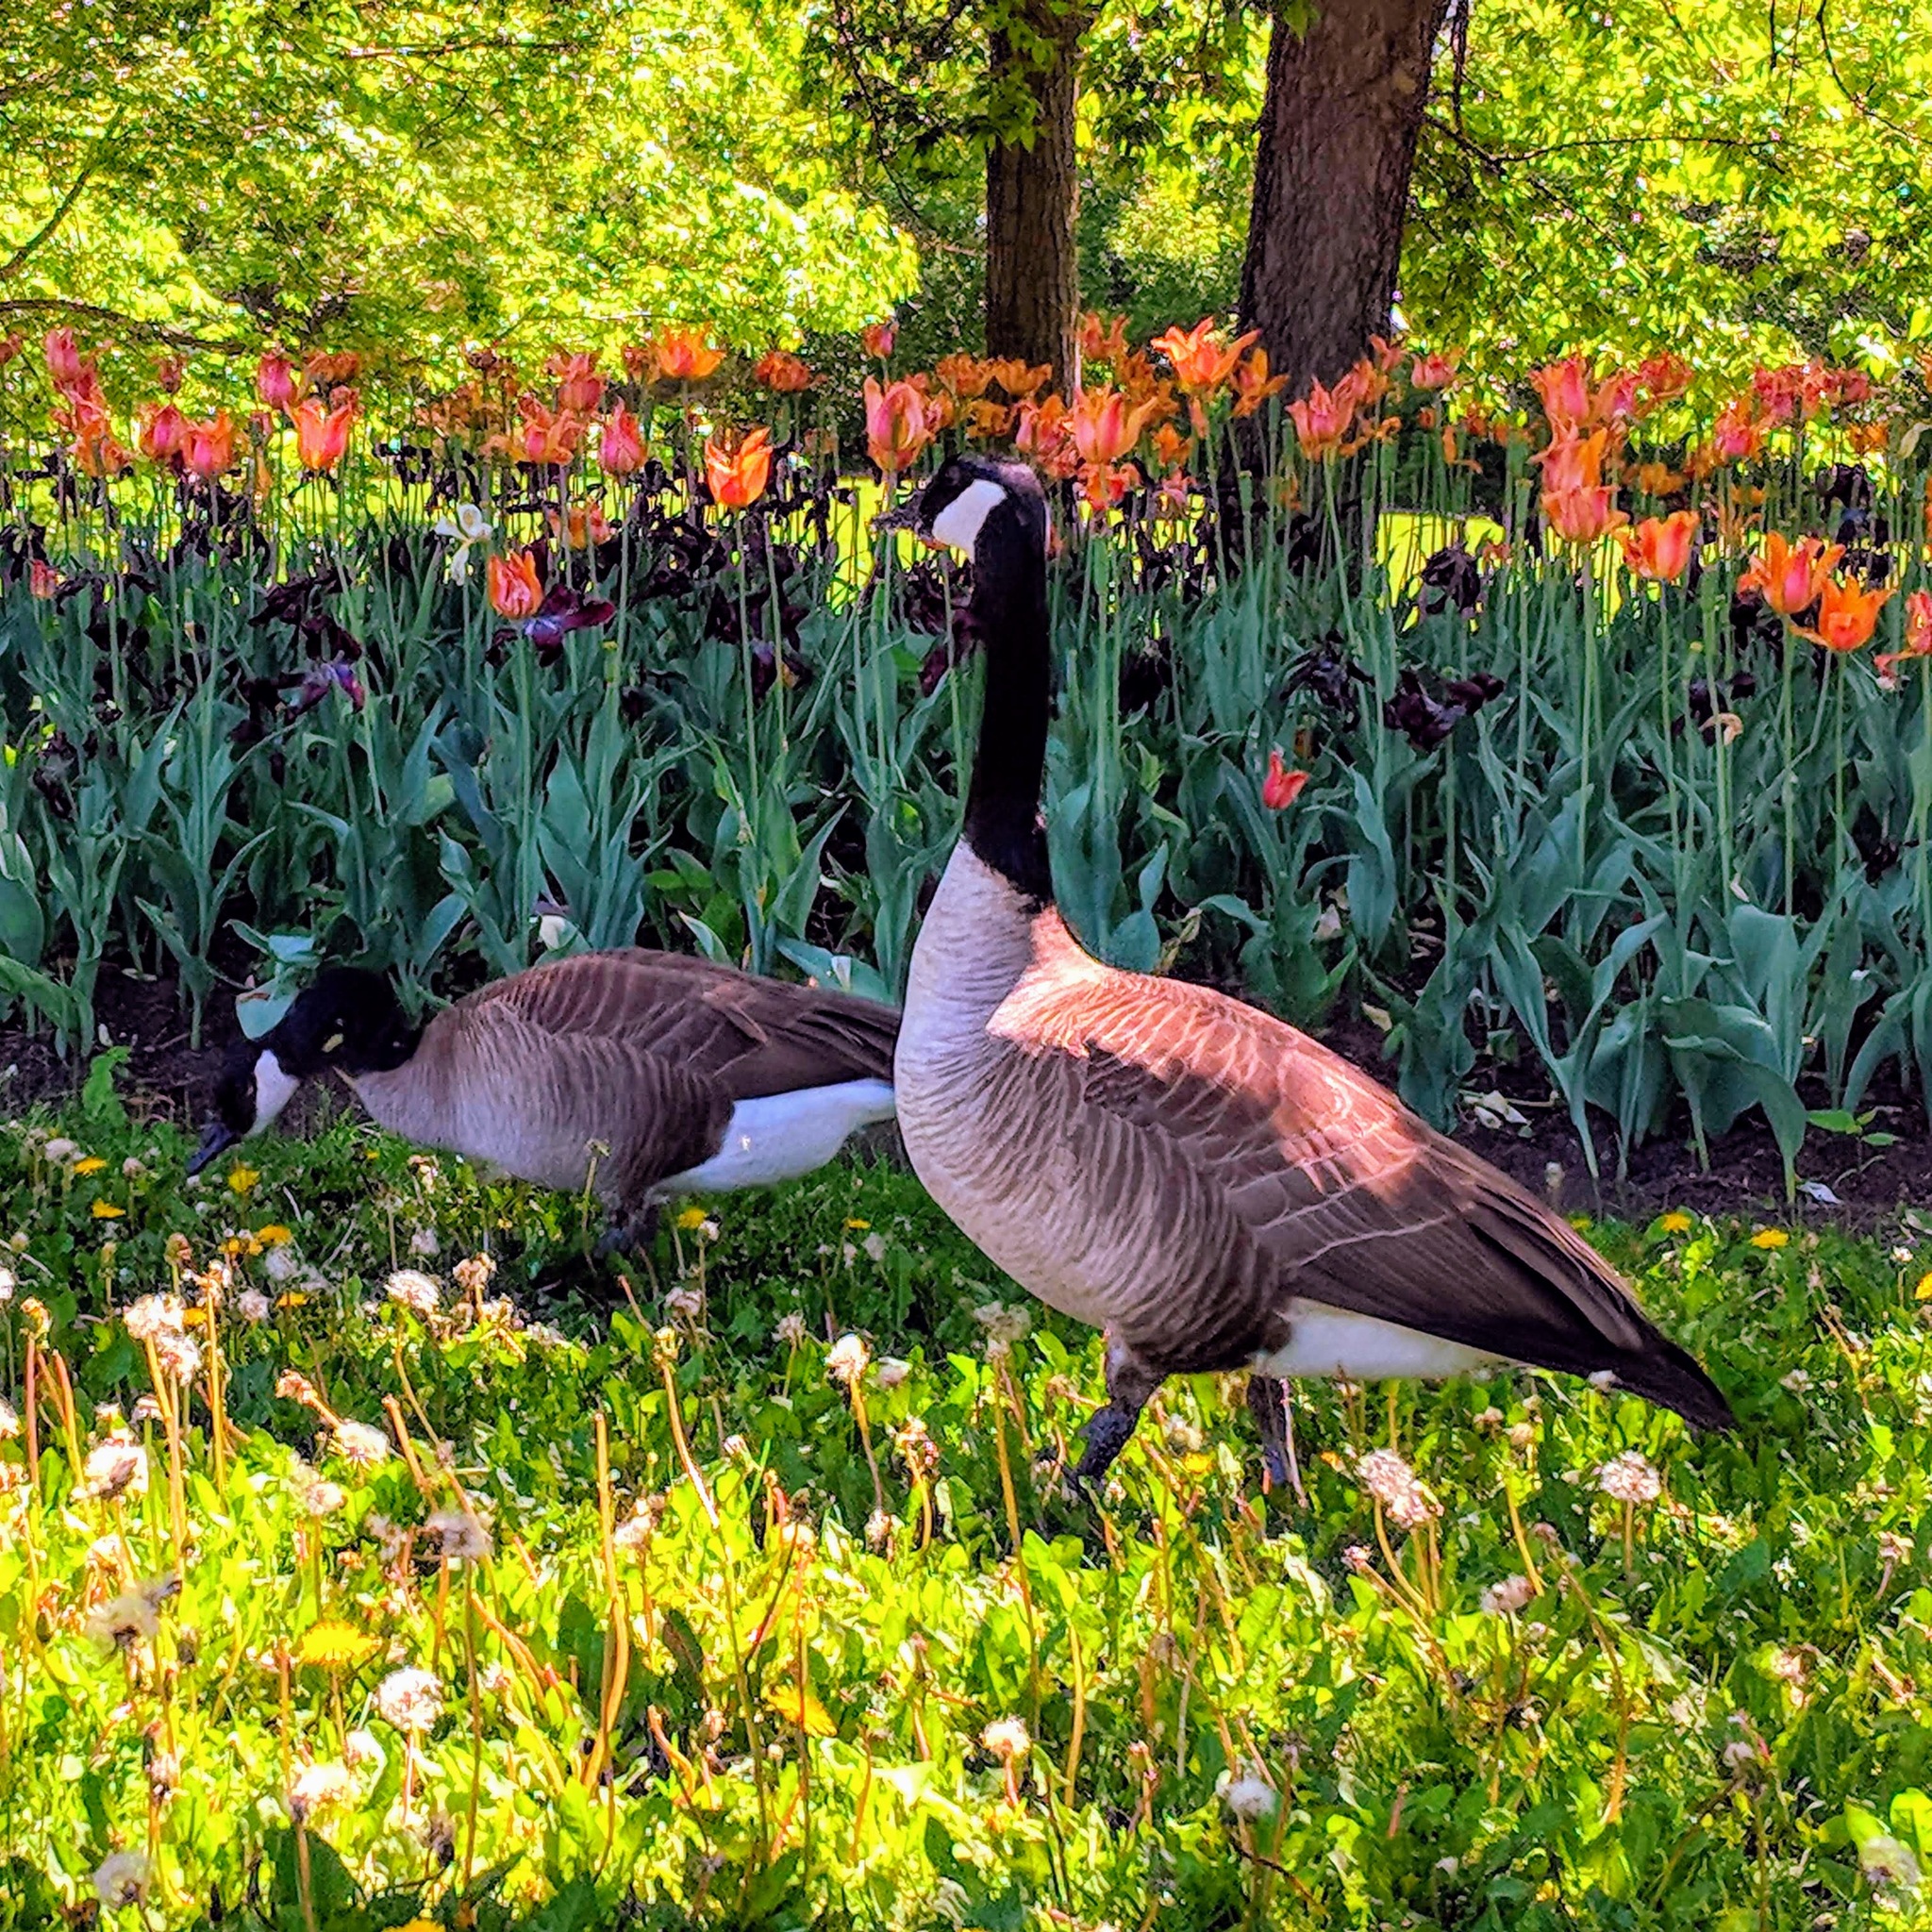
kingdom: Animalia
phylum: Chordata
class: Aves
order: Anseriformes
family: Anatidae
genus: Branta
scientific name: Branta canadensis
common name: Canada goose
